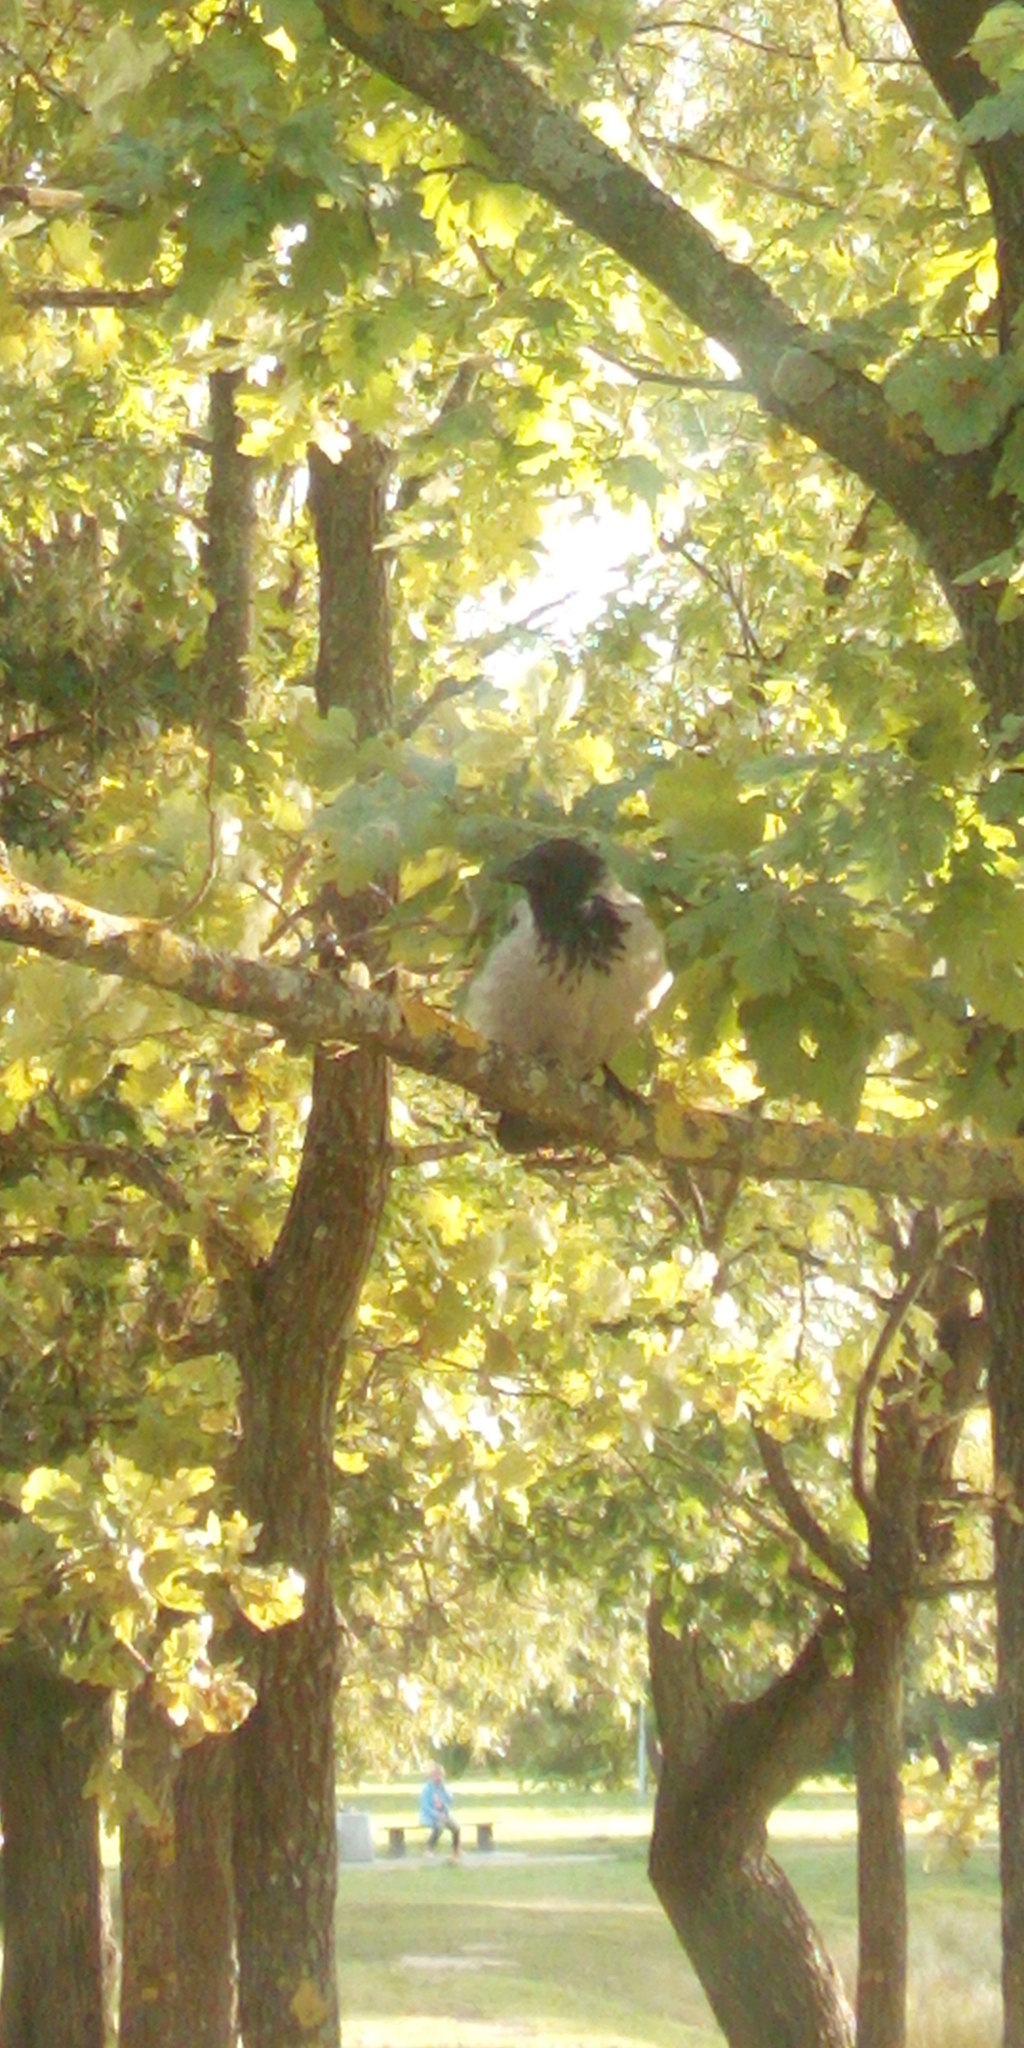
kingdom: Animalia
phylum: Chordata
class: Aves
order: Passeriformes
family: Corvidae
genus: Corvus
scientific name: Corvus cornix
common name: Hooded crow
